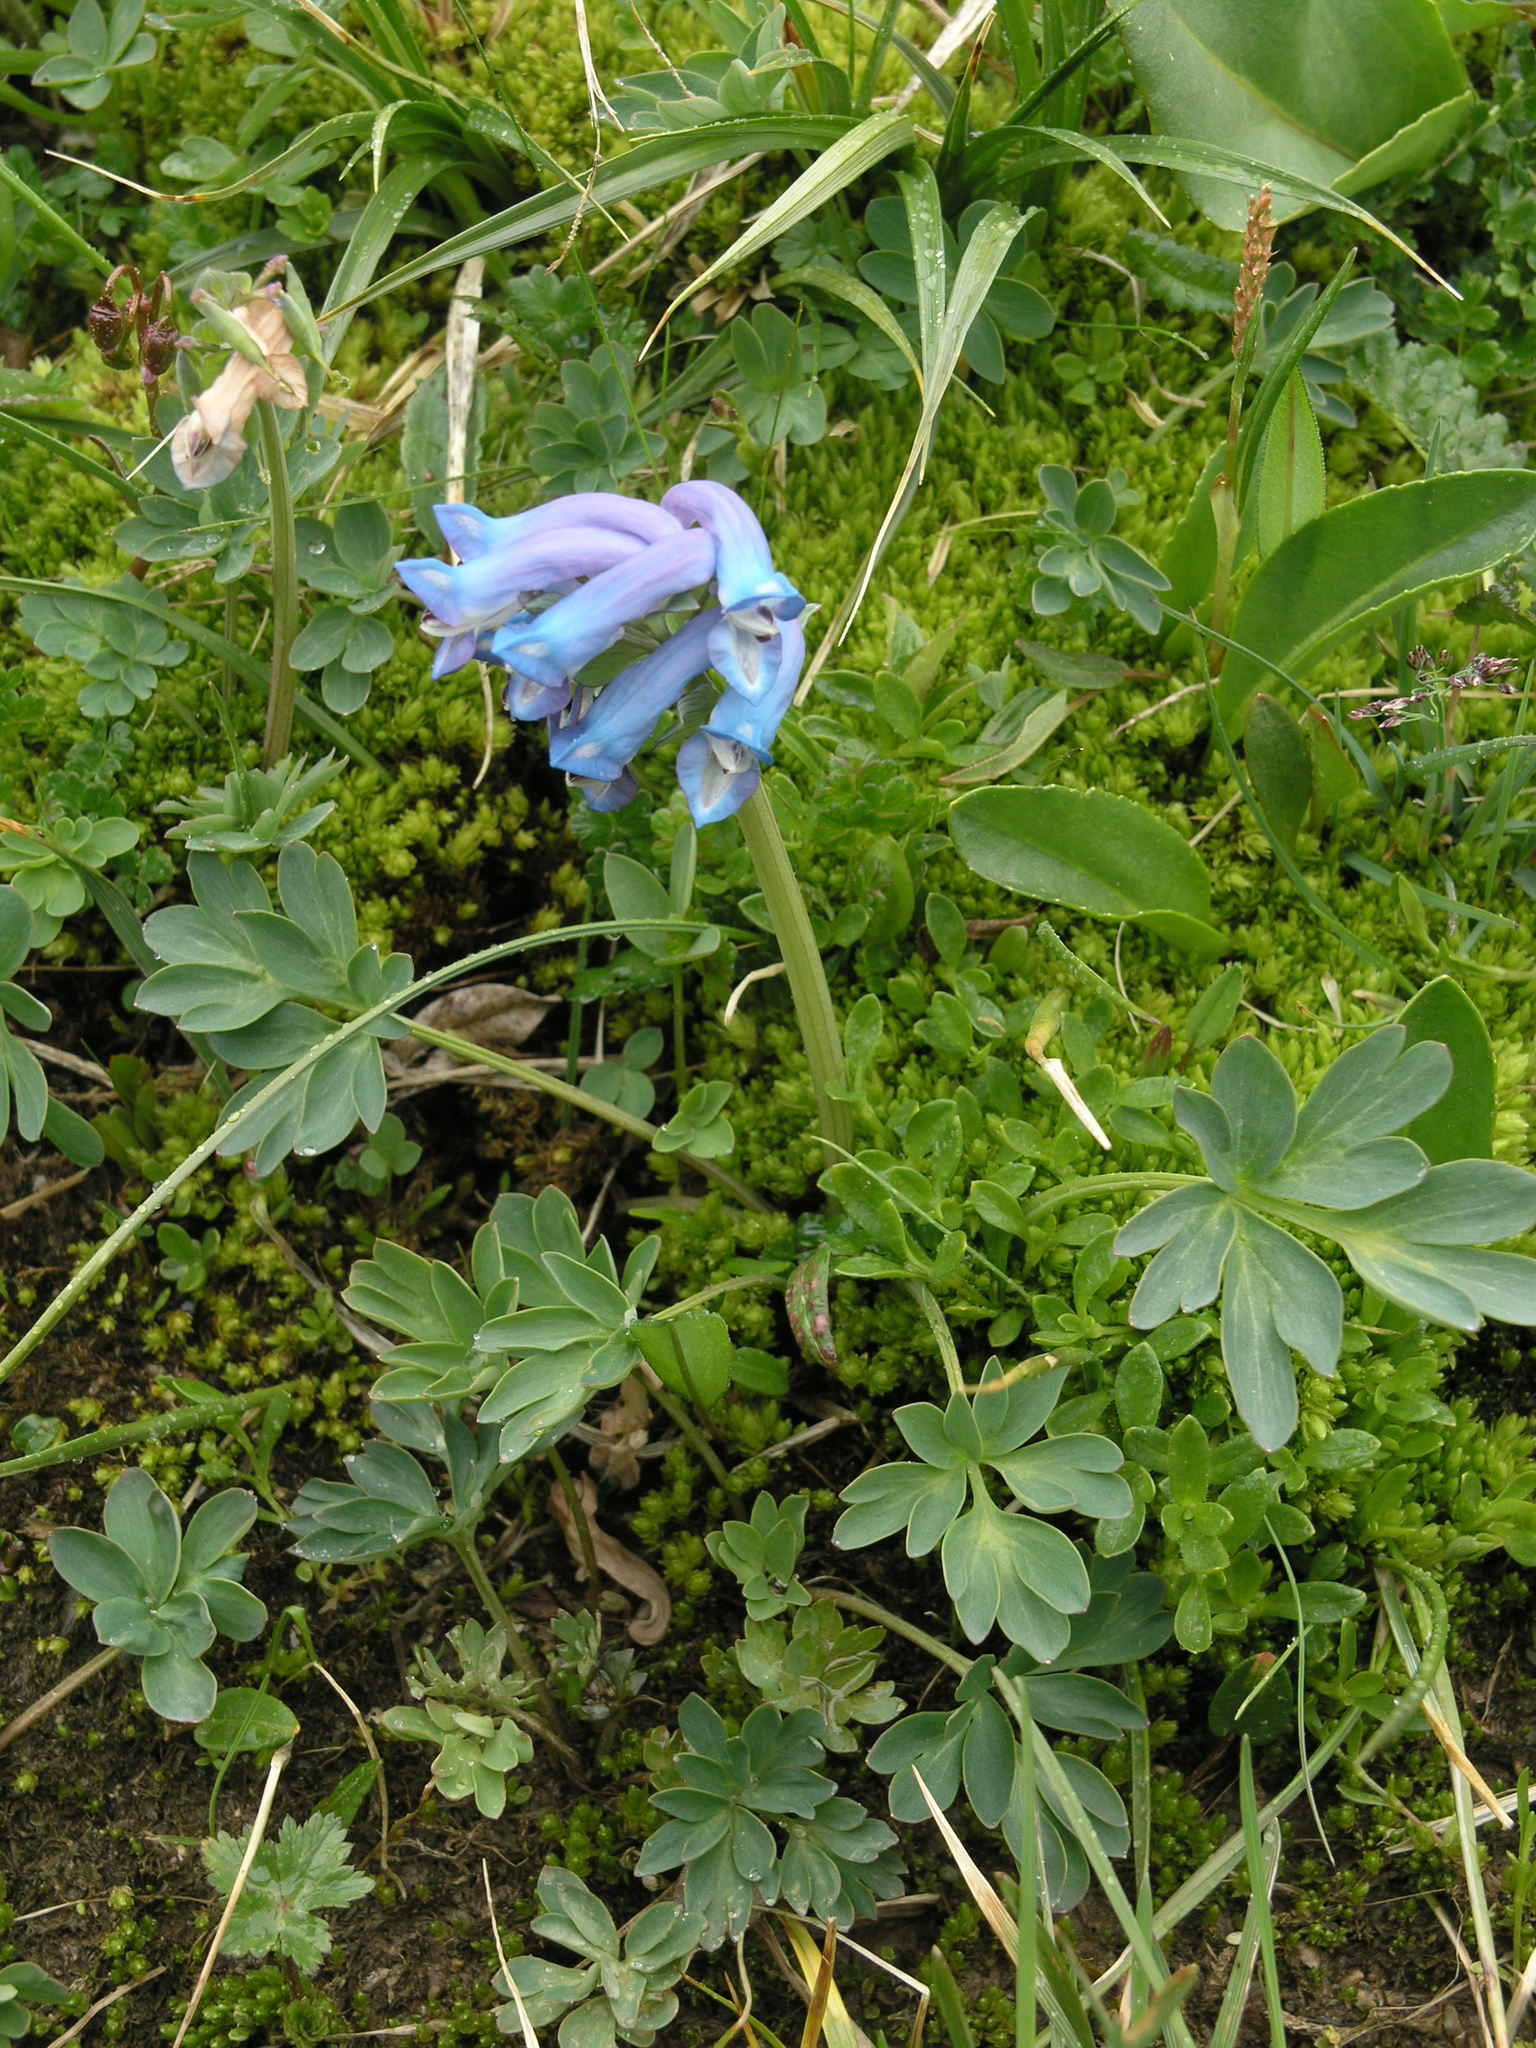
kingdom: Plantae
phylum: Tracheophyta
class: Magnoliopsida
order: Ranunculales
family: Papaveraceae
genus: Corydalis
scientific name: Corydalis pauciflora
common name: Blue corydalis
